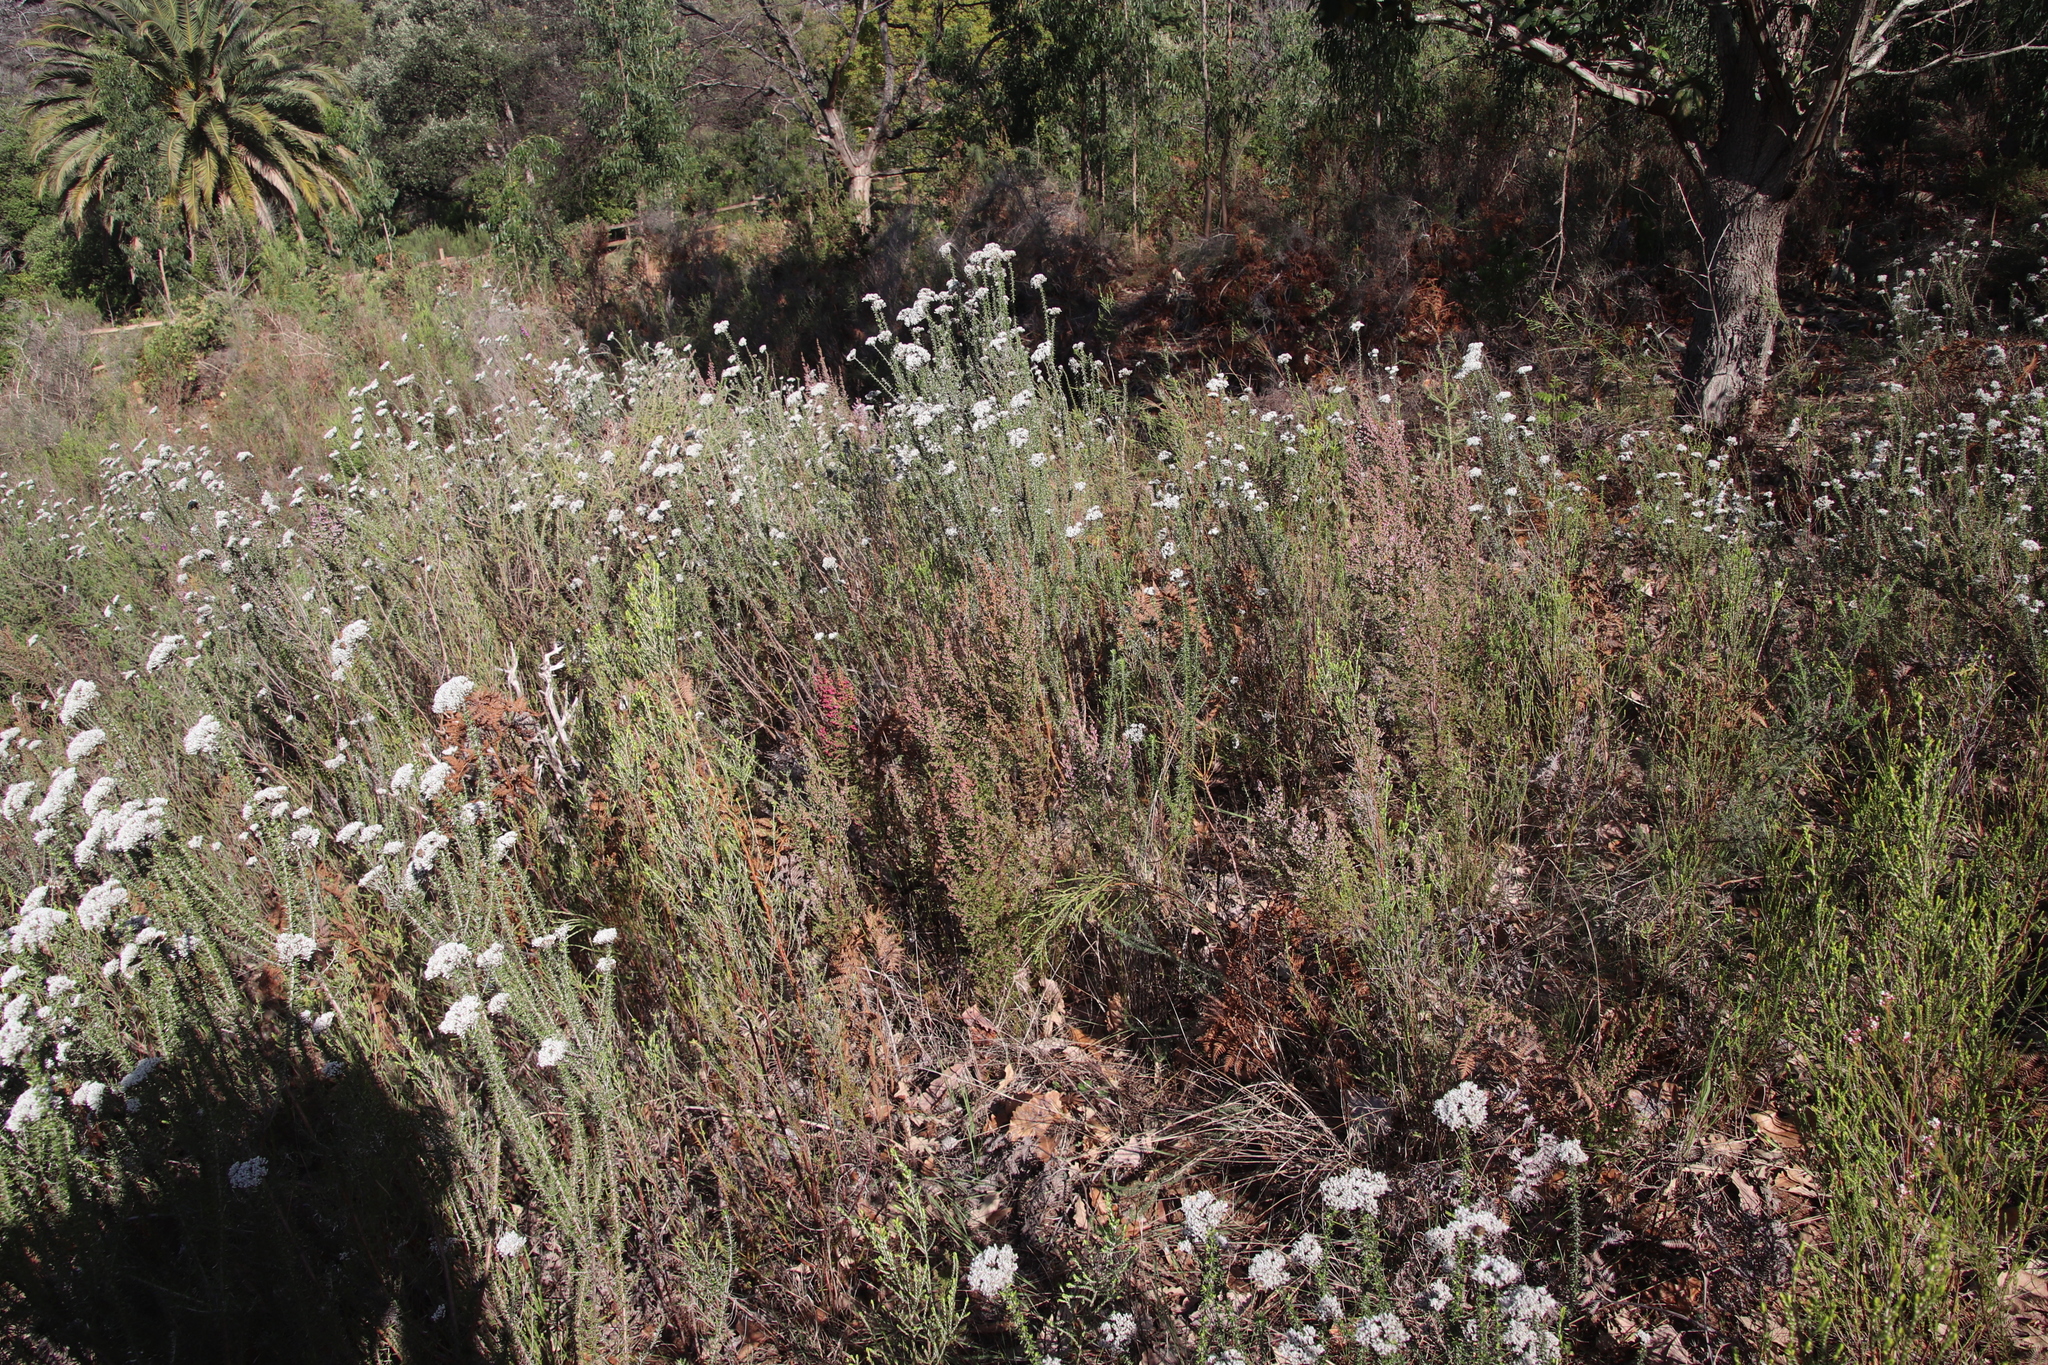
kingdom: Plantae
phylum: Tracheophyta
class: Magnoliopsida
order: Asterales
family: Asteraceae
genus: Metalasia
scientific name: Metalasia densa
